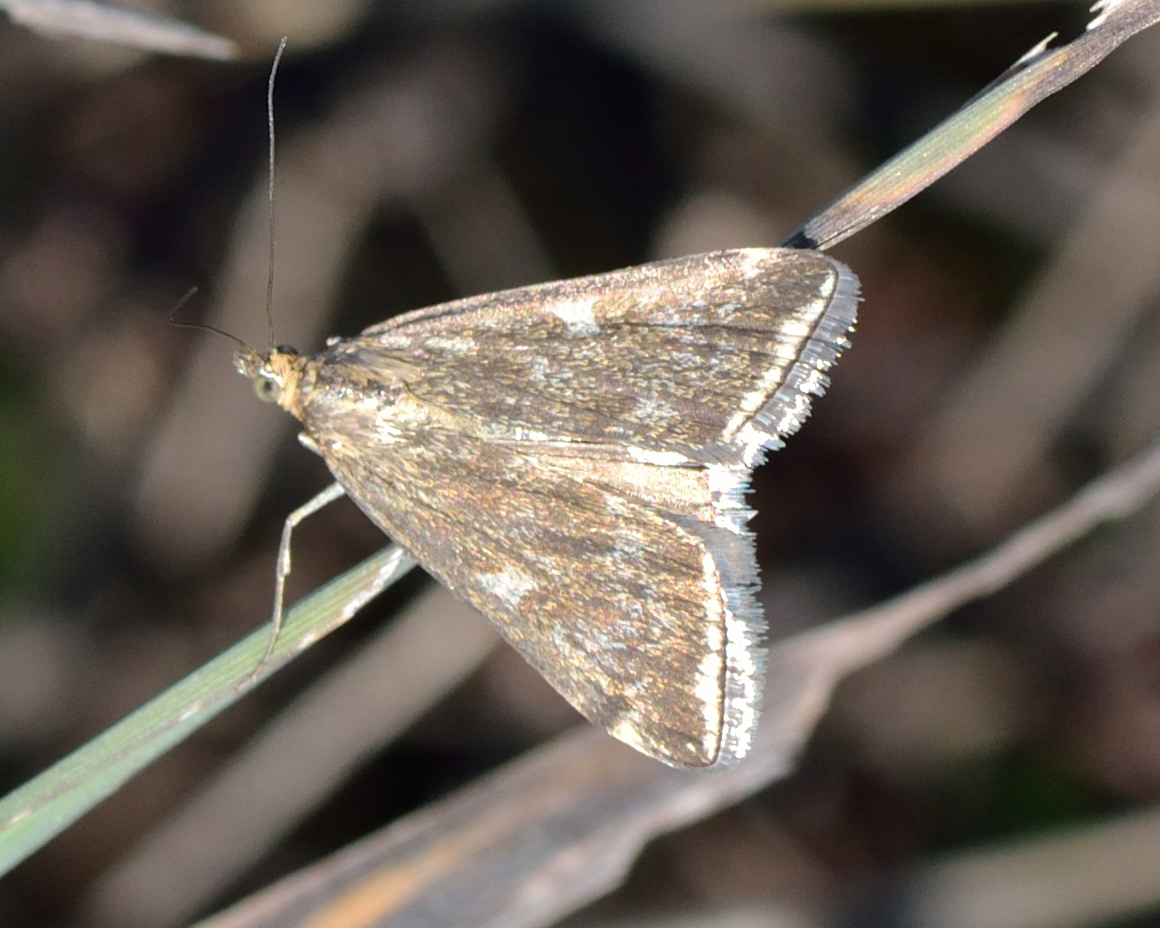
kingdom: Animalia
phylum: Arthropoda
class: Insecta
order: Lepidoptera
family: Crambidae
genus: Loxostege
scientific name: Loxostege sticticalis
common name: Crambid moth
